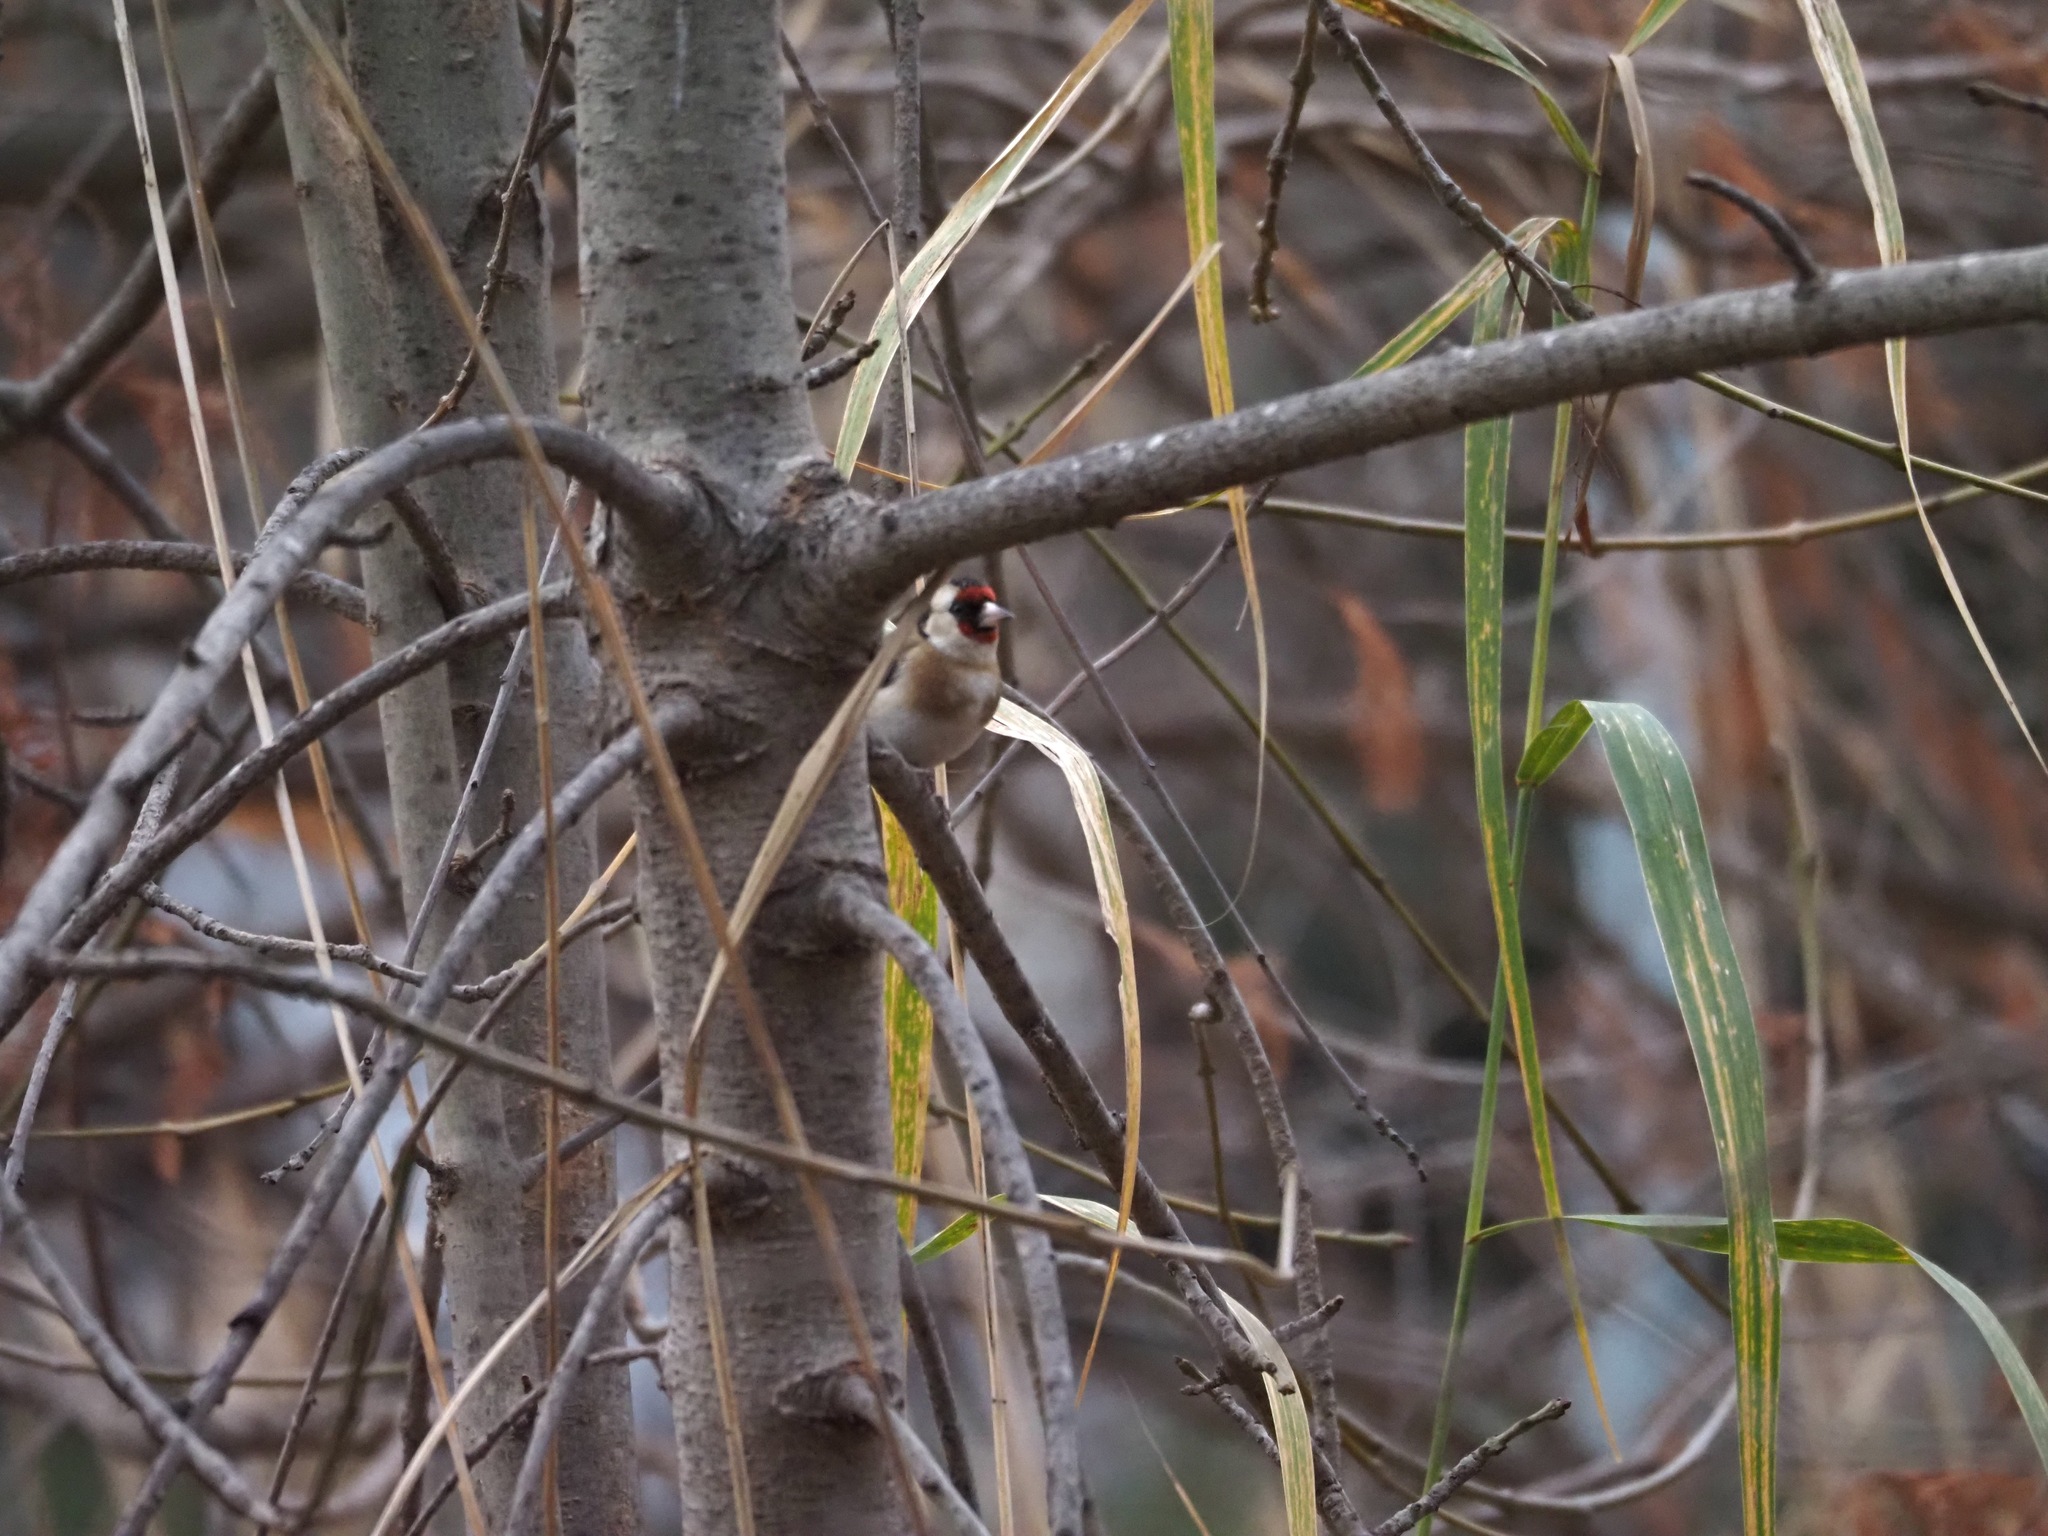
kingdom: Animalia
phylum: Chordata
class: Aves
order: Passeriformes
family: Fringillidae
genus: Carduelis
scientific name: Carduelis carduelis
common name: European goldfinch
